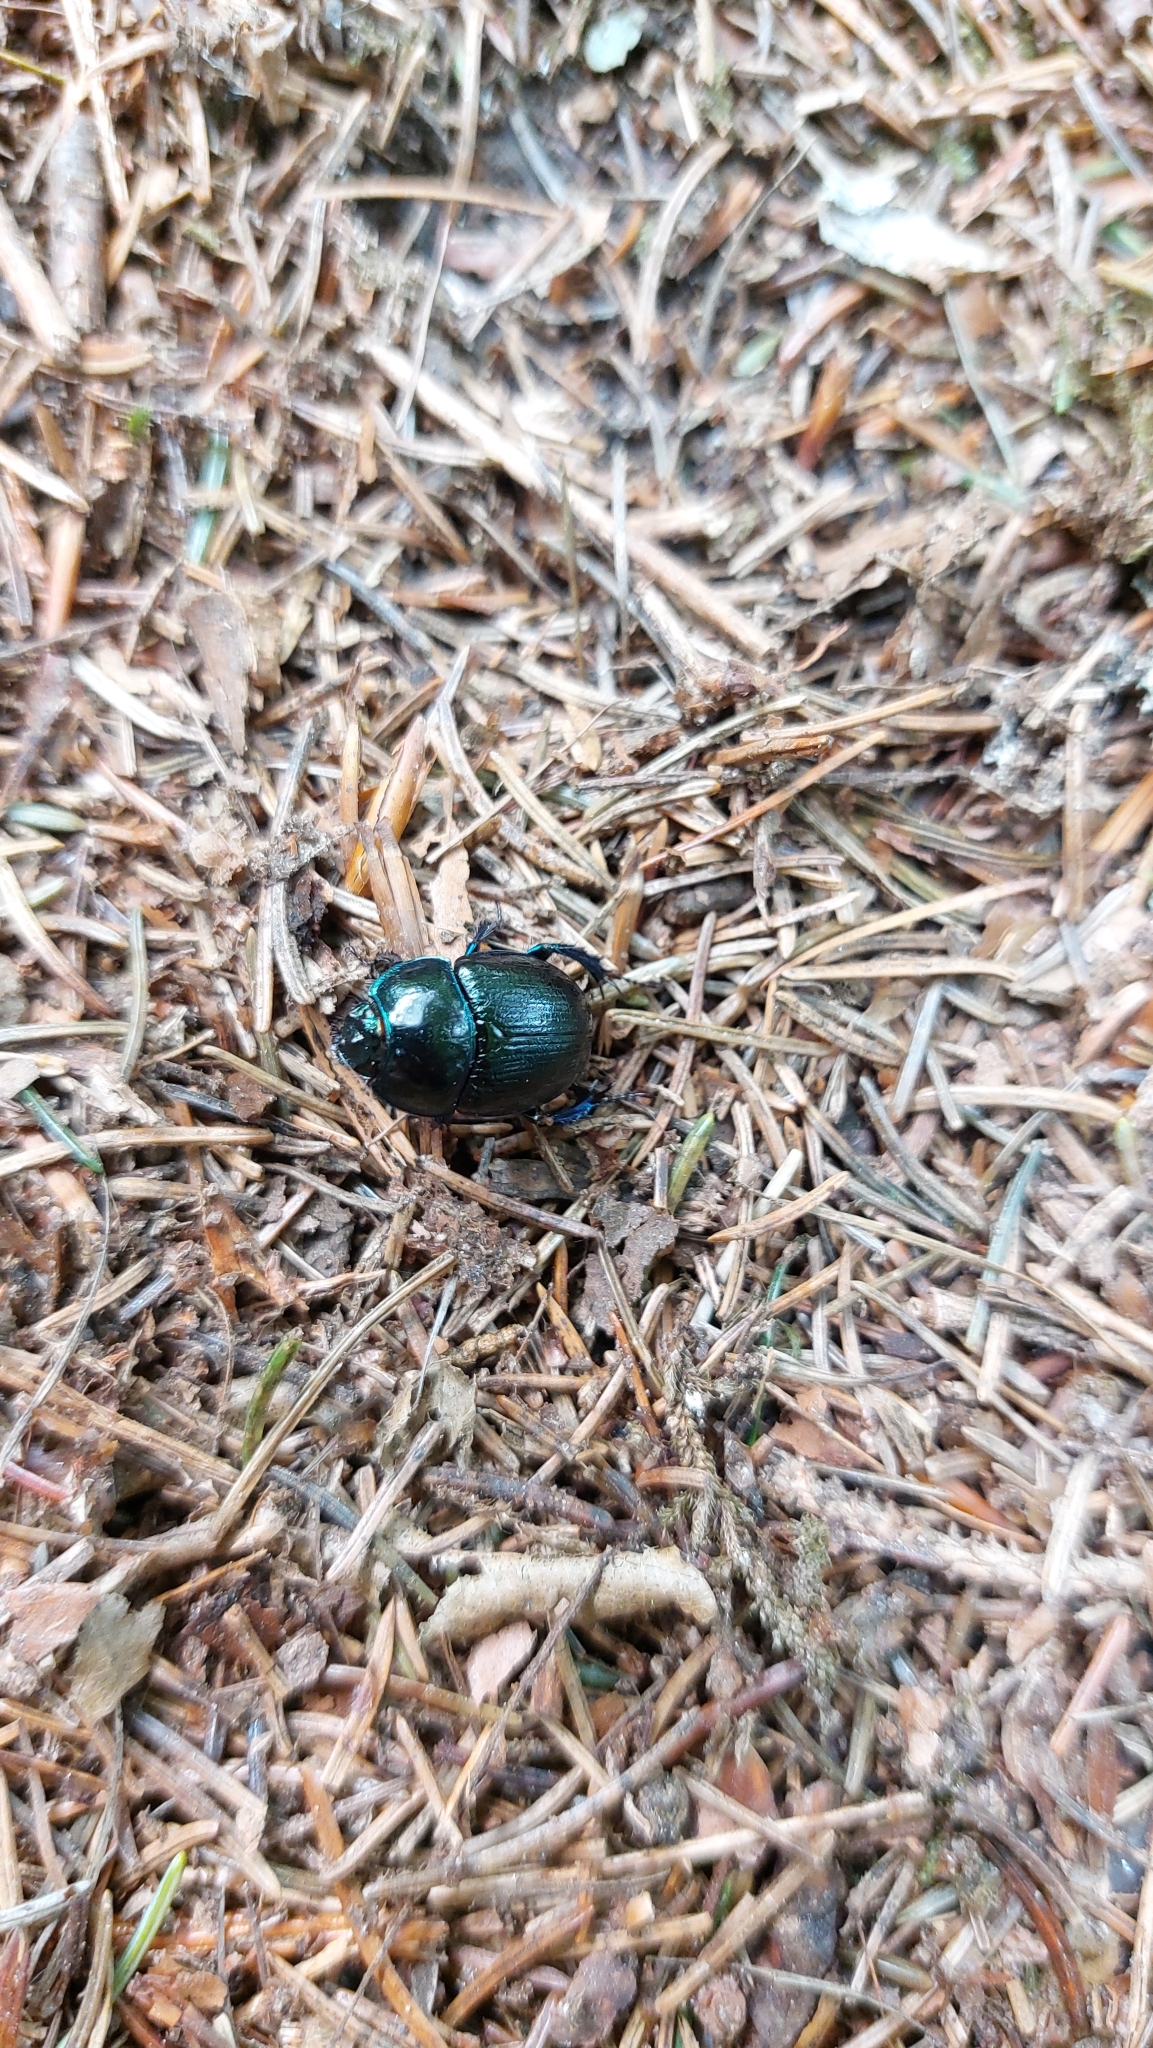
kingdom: Animalia
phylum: Arthropoda
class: Insecta
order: Coleoptera
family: Geotrupidae
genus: Anoplotrupes
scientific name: Anoplotrupes stercorosus
